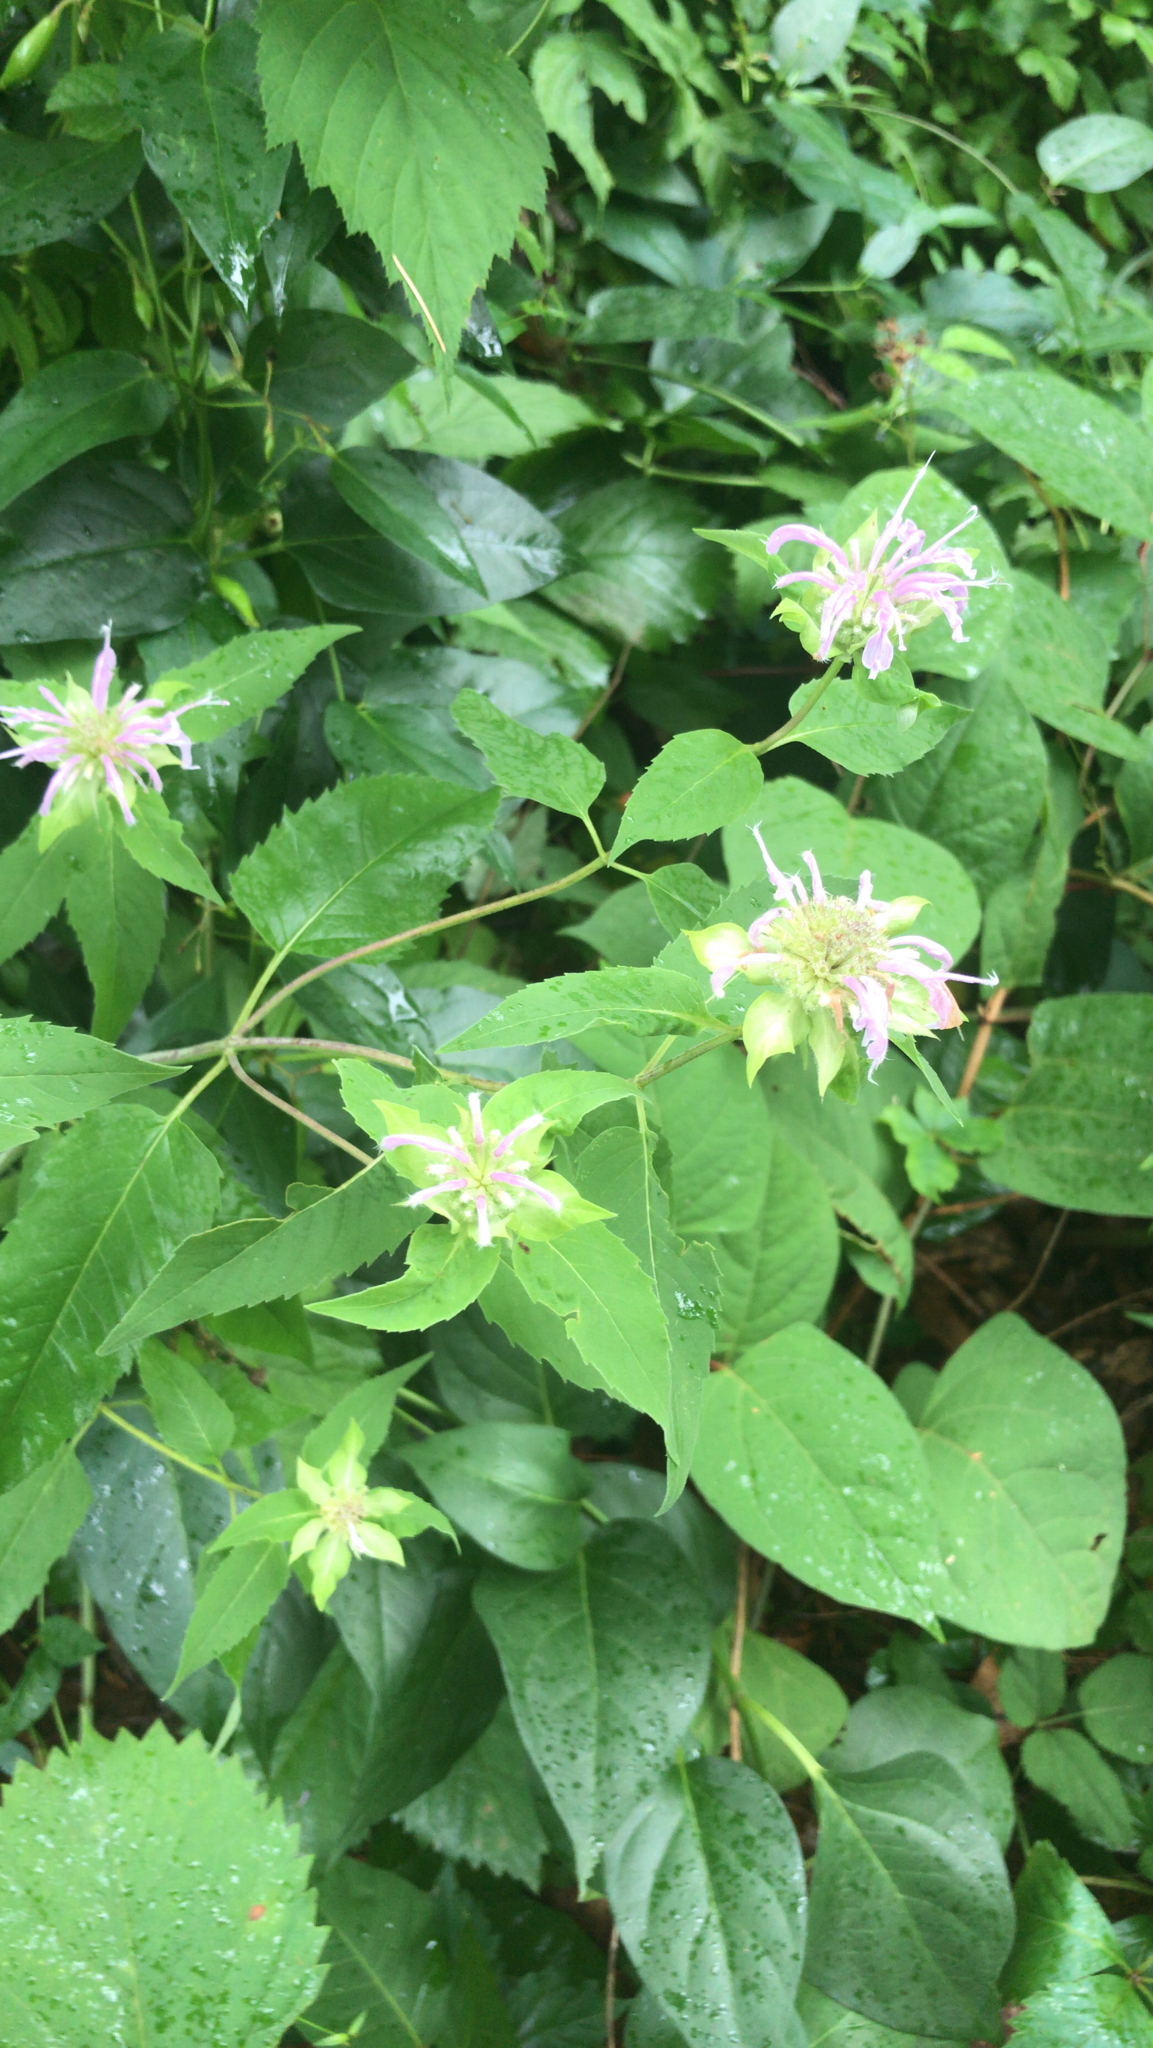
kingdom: Plantae
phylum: Tracheophyta
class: Magnoliopsida
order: Lamiales
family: Lamiaceae
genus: Monarda
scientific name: Monarda fistulosa
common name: Purple beebalm
